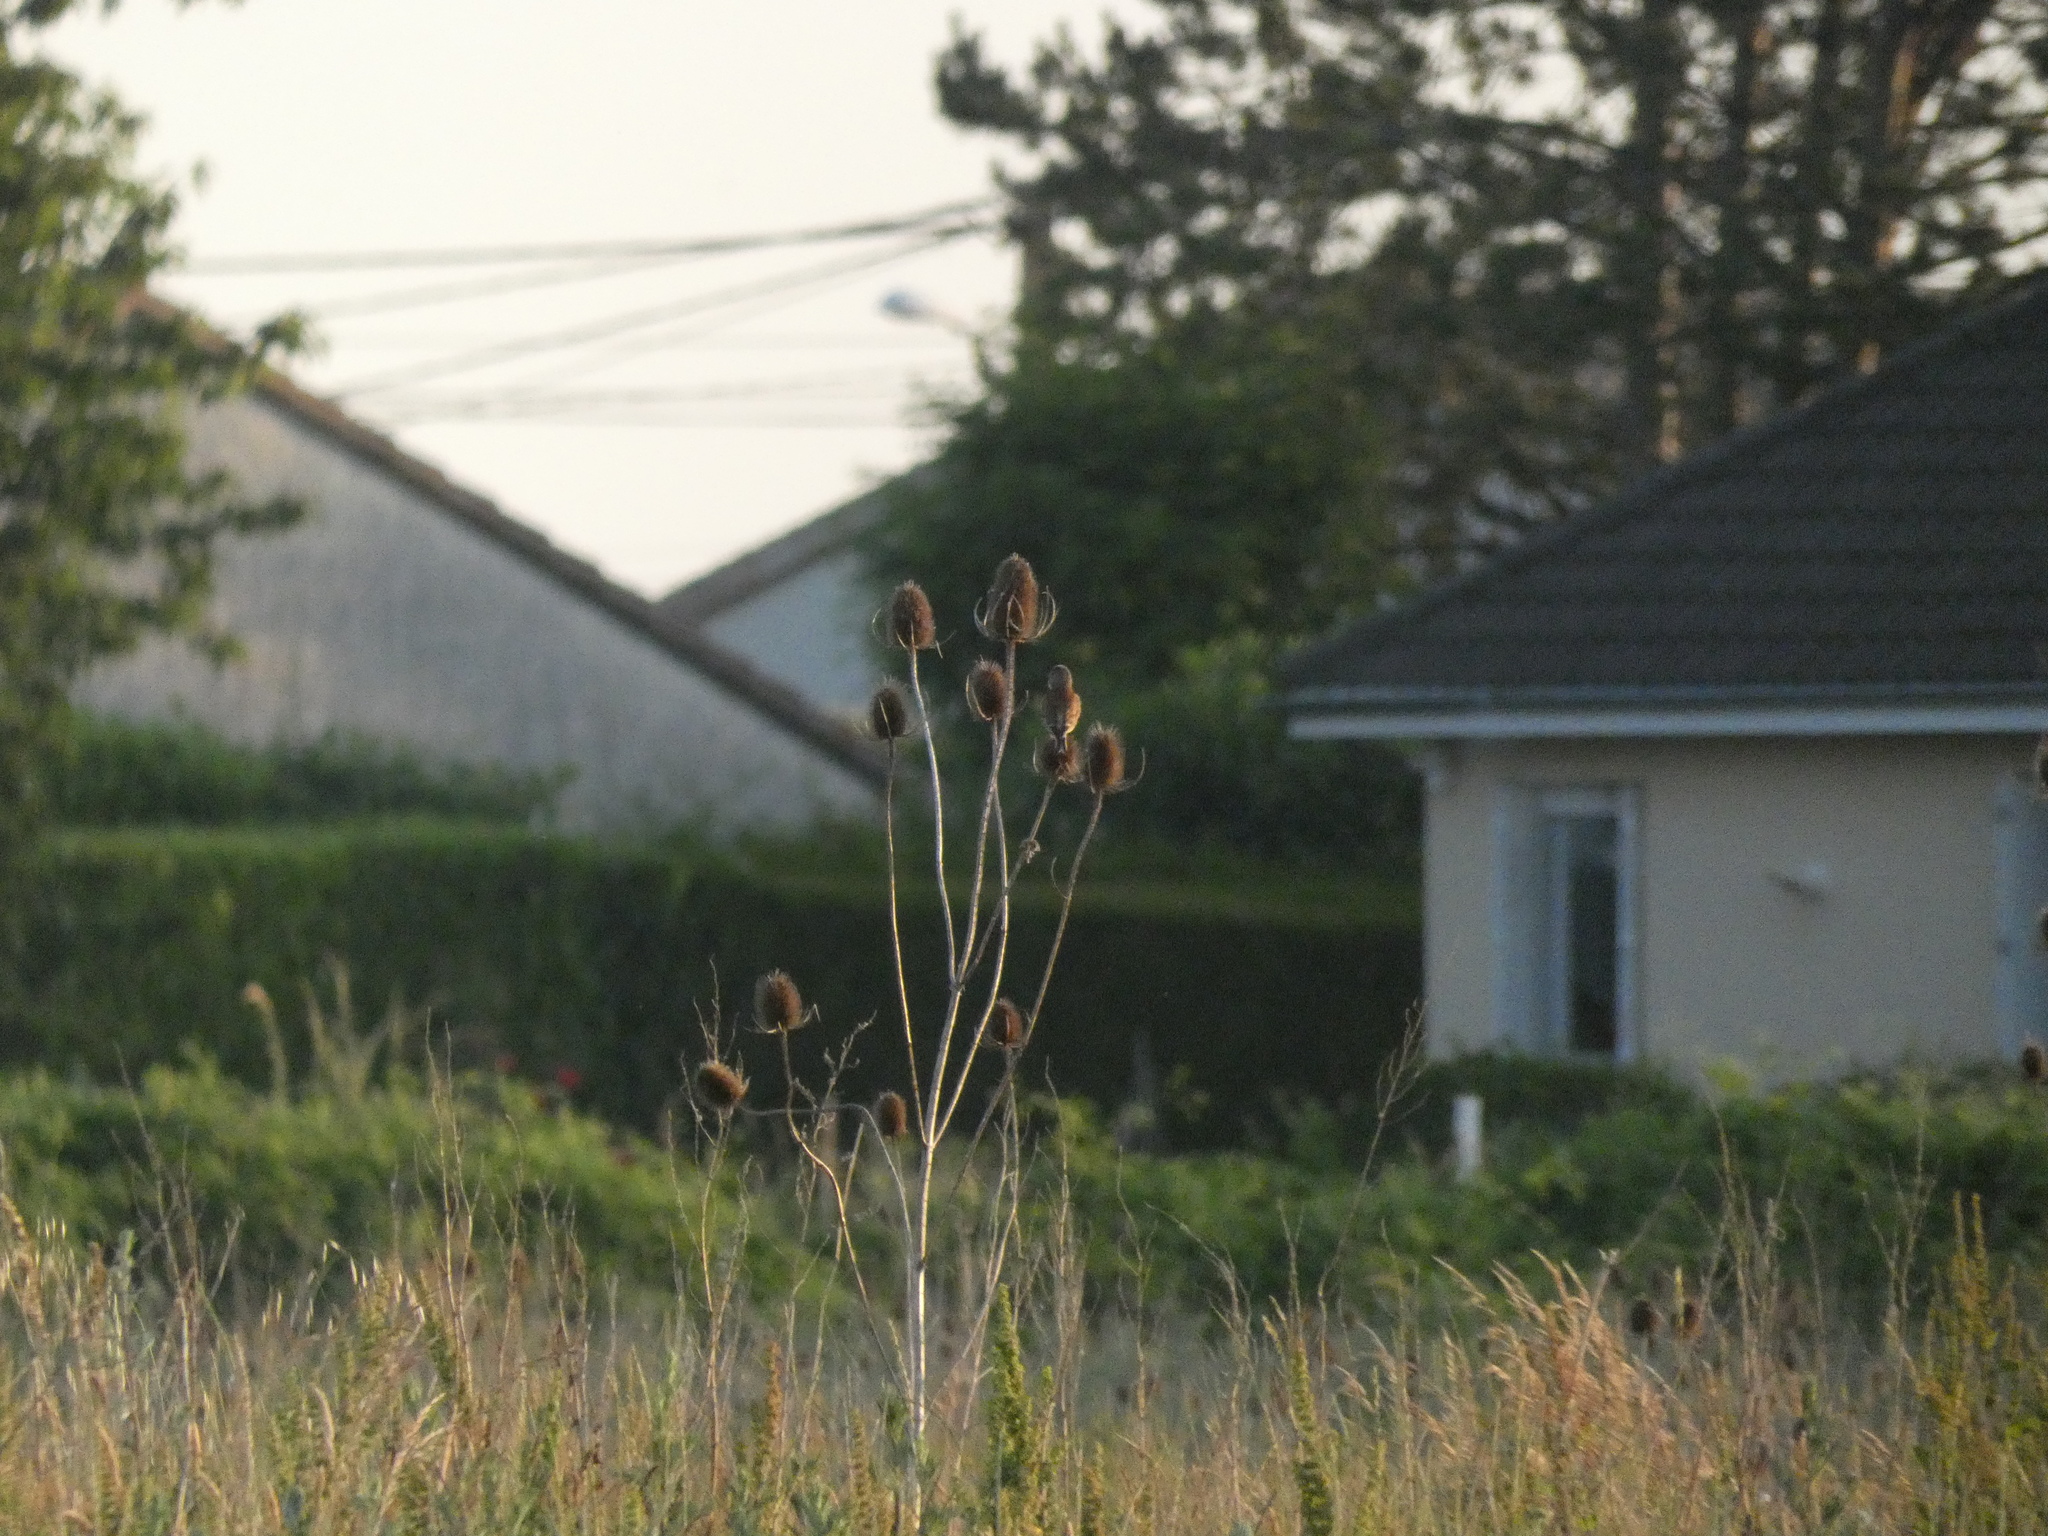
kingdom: Animalia
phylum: Chordata
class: Aves
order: Passeriformes
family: Fringillidae
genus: Linaria
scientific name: Linaria cannabina
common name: Common linnet
